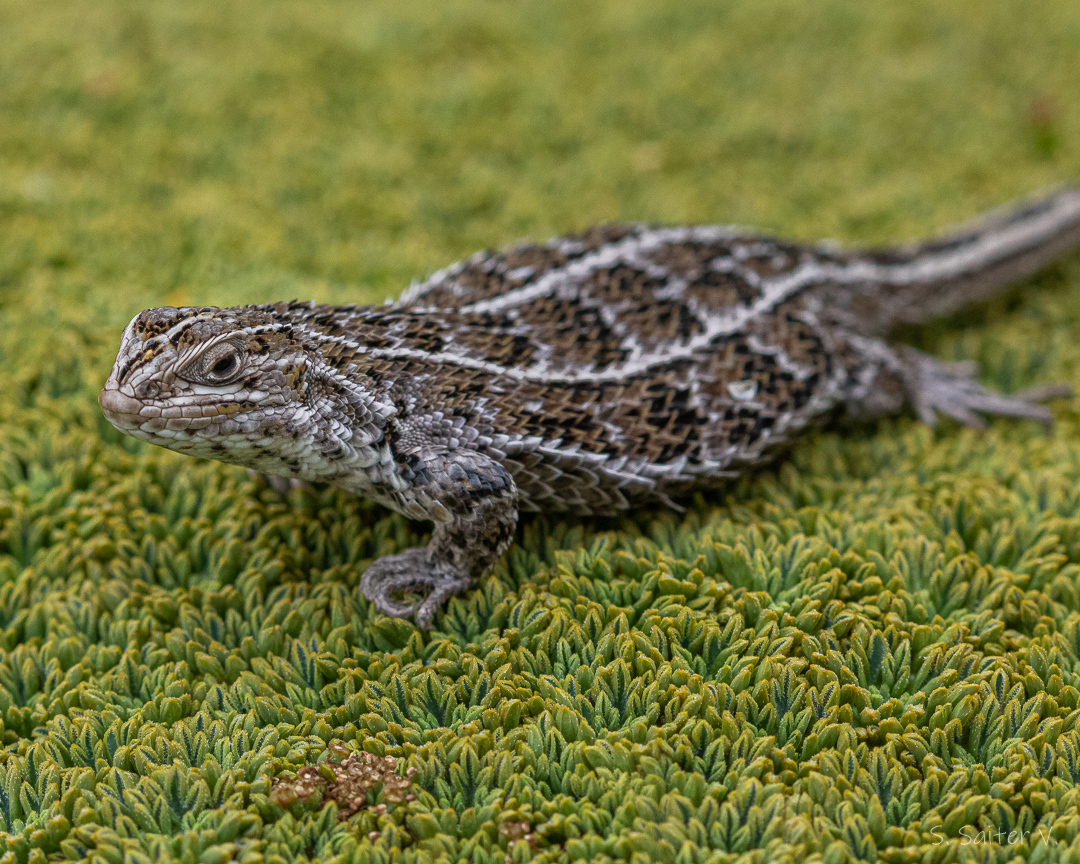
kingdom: Animalia
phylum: Chordata
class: Squamata
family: Liolaemidae
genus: Liolaemus
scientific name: Liolaemus magellanicus
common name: Magellan's tree iguana
